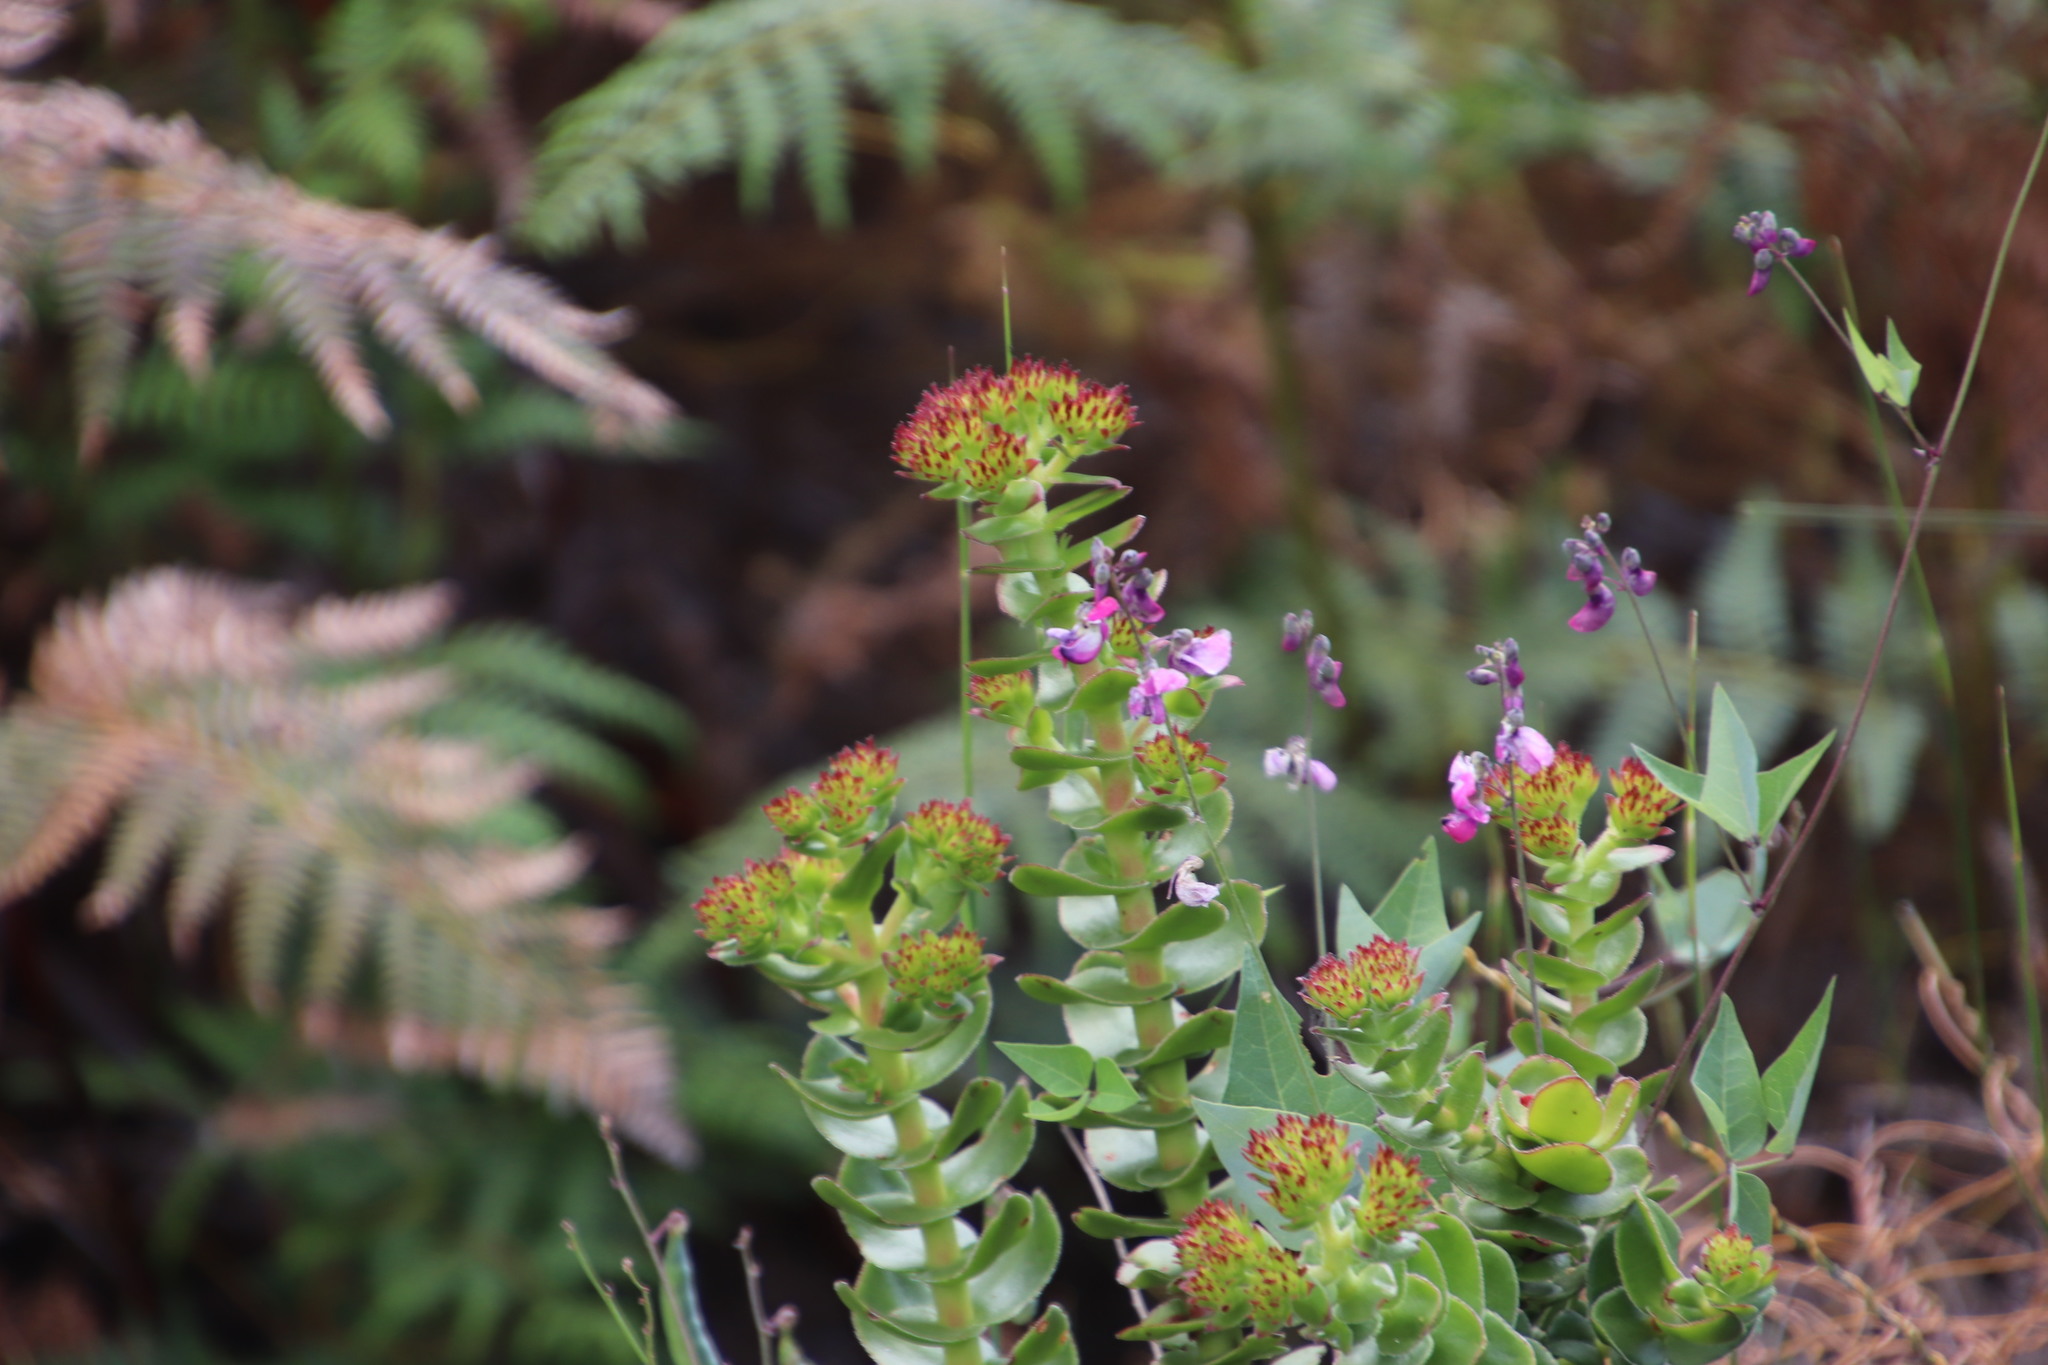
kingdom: Plantae
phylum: Tracheophyta
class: Magnoliopsida
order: Saxifragales
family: Crassulaceae
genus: Crassula
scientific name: Crassula undulata
